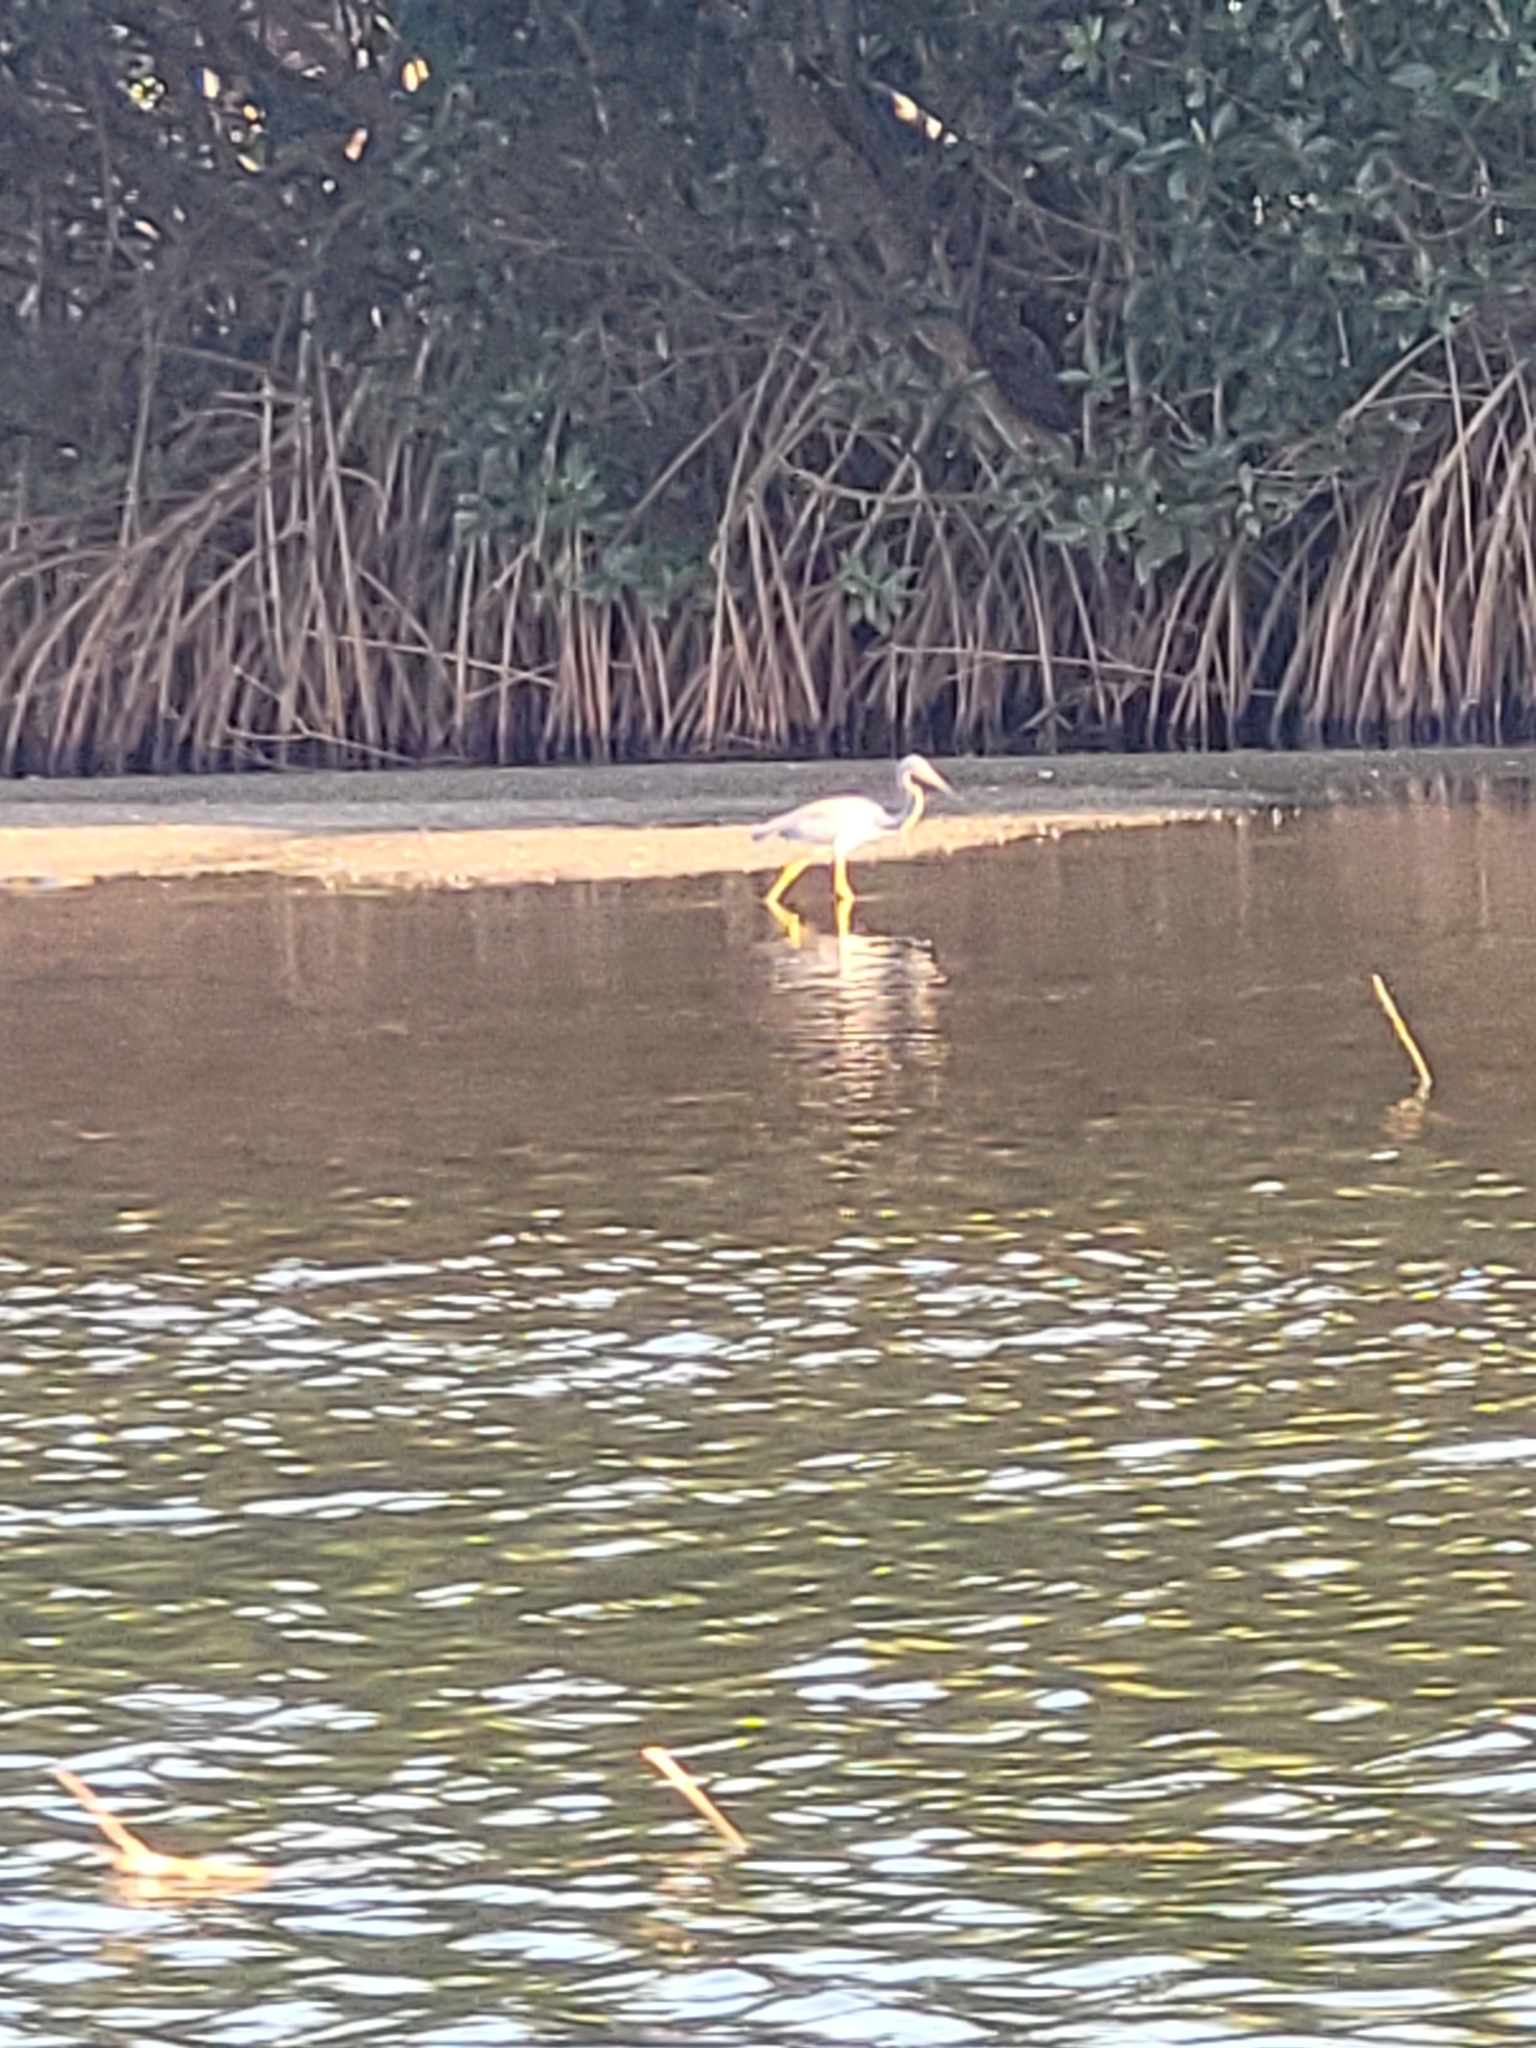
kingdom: Animalia
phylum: Chordata
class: Aves
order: Pelecaniformes
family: Ardeidae
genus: Egretta
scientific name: Egretta tricolor
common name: Tricolored heron
